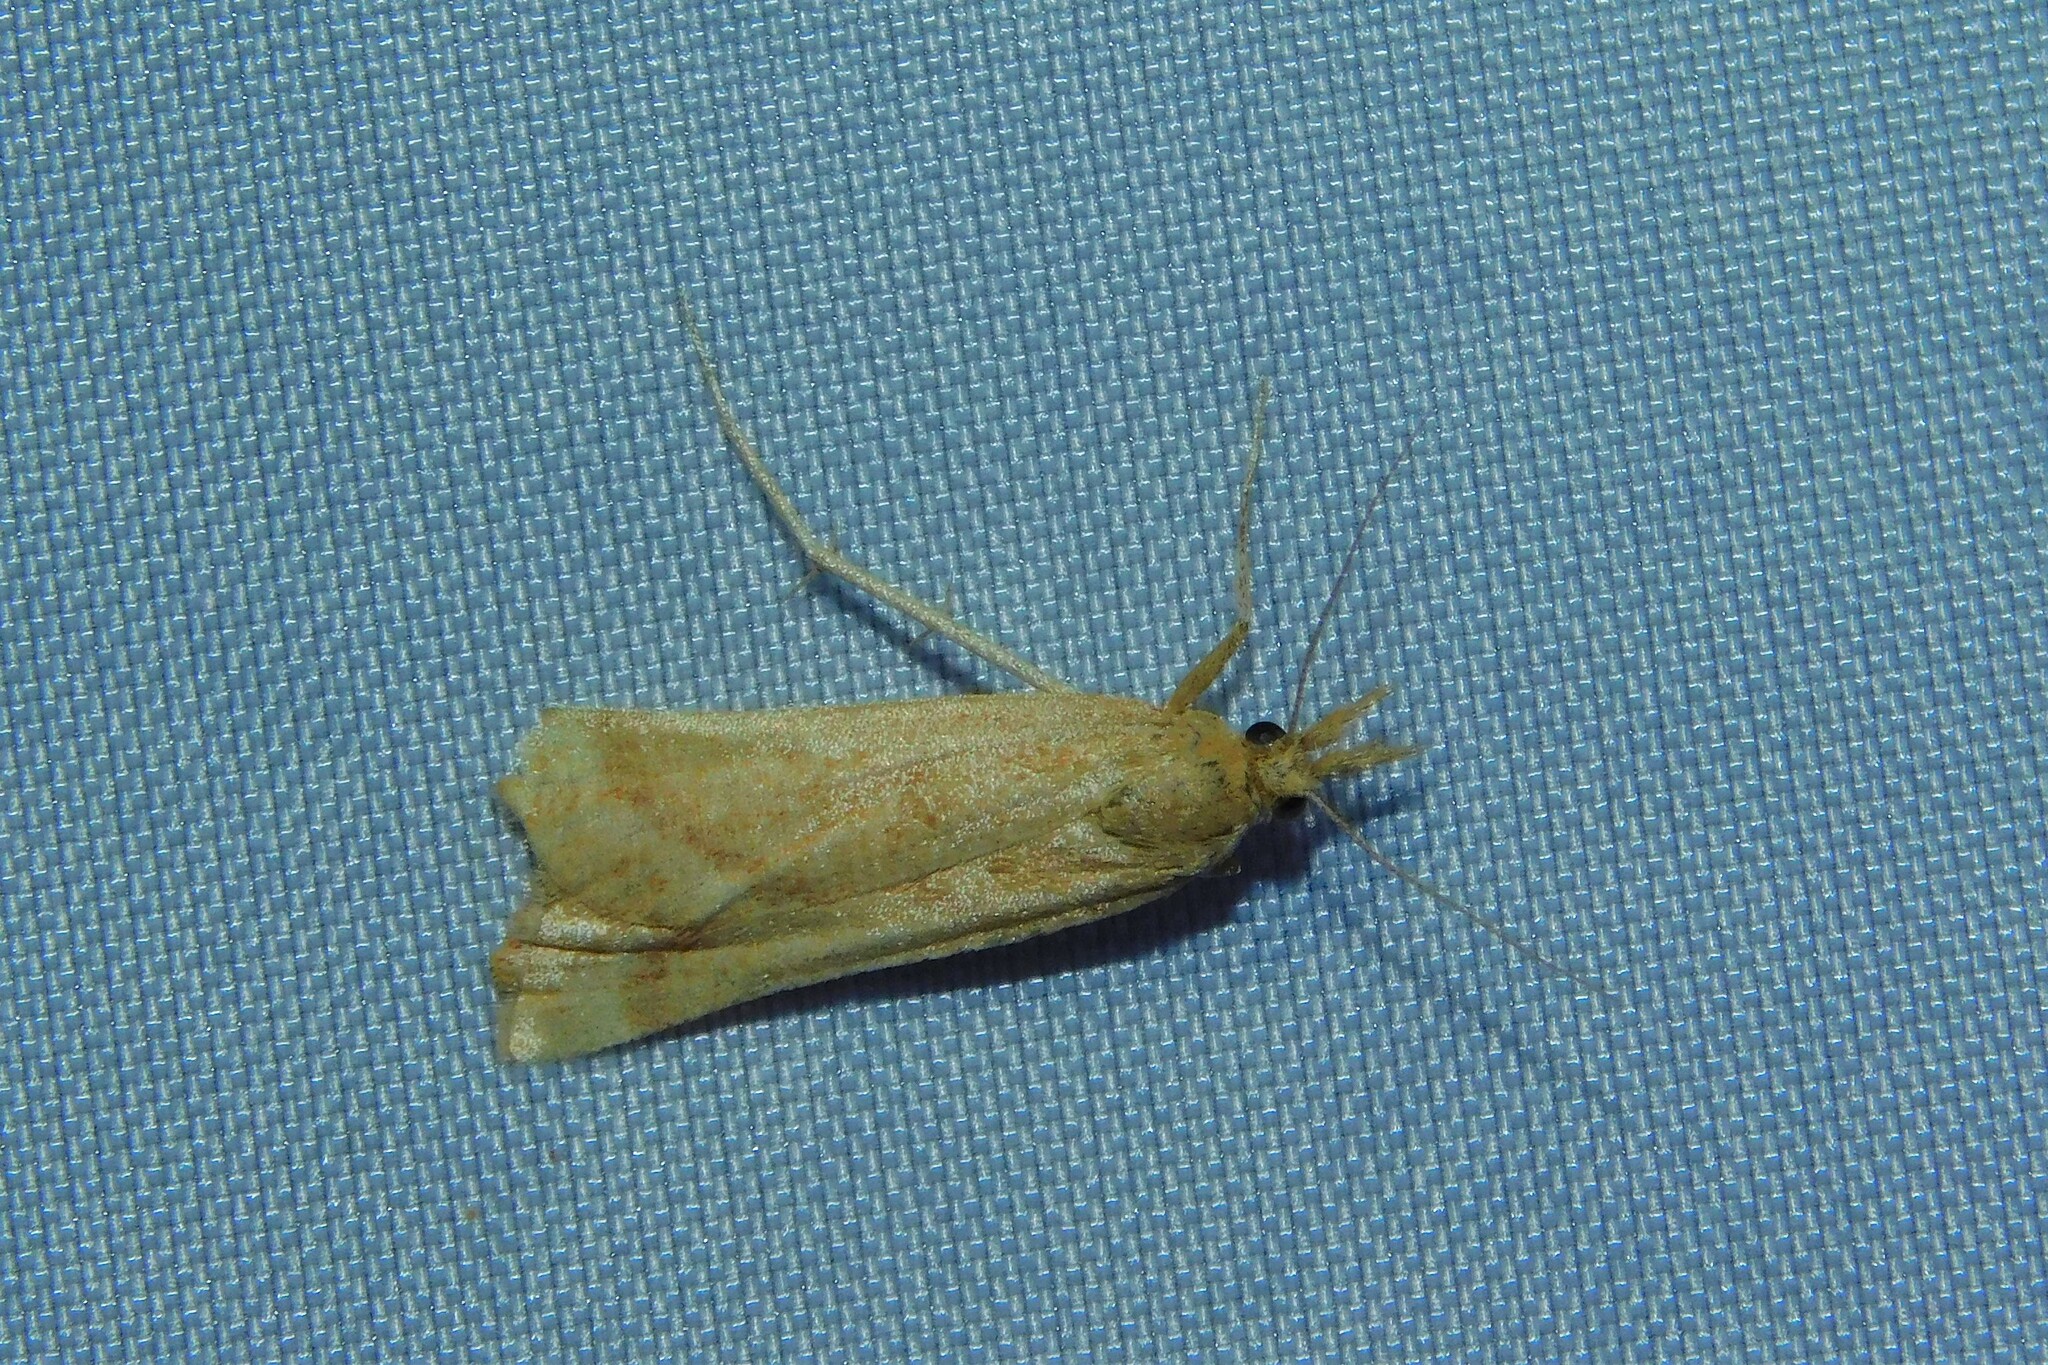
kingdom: Animalia
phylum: Arthropoda
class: Insecta
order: Lepidoptera
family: Pyralidae
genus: Synaphe
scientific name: Synaphe punctalis
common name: Long-legged tabby
